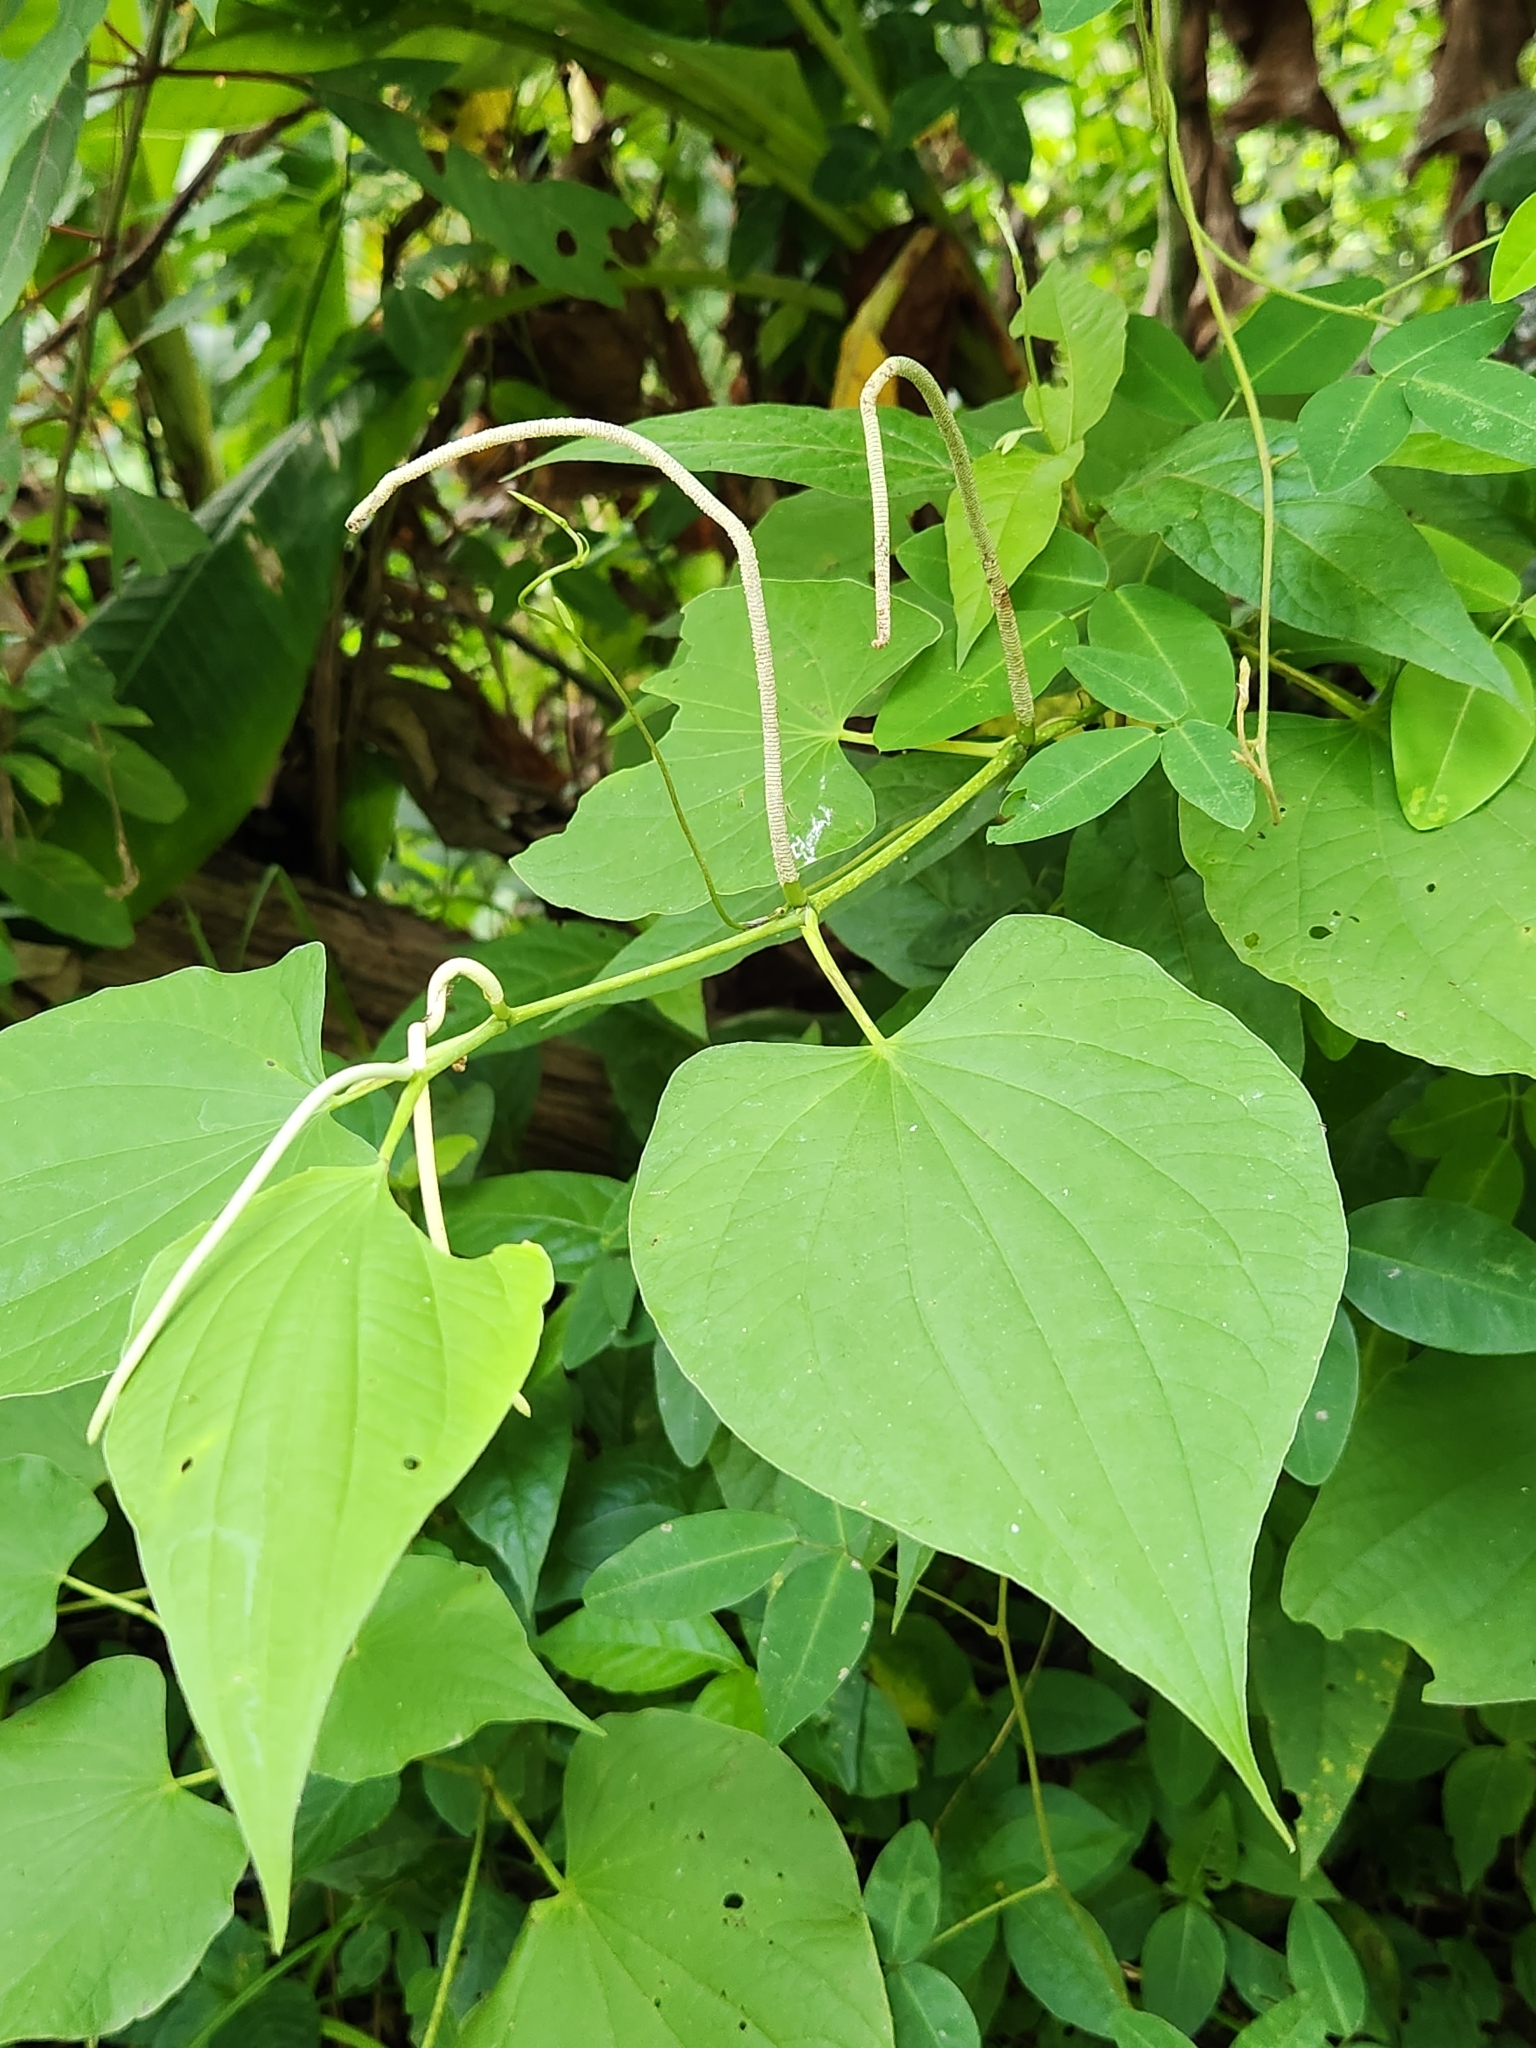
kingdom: Plantae
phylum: Tracheophyta
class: Magnoliopsida
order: Piperales
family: Piperaceae
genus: Piper
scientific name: Piper marginatum
